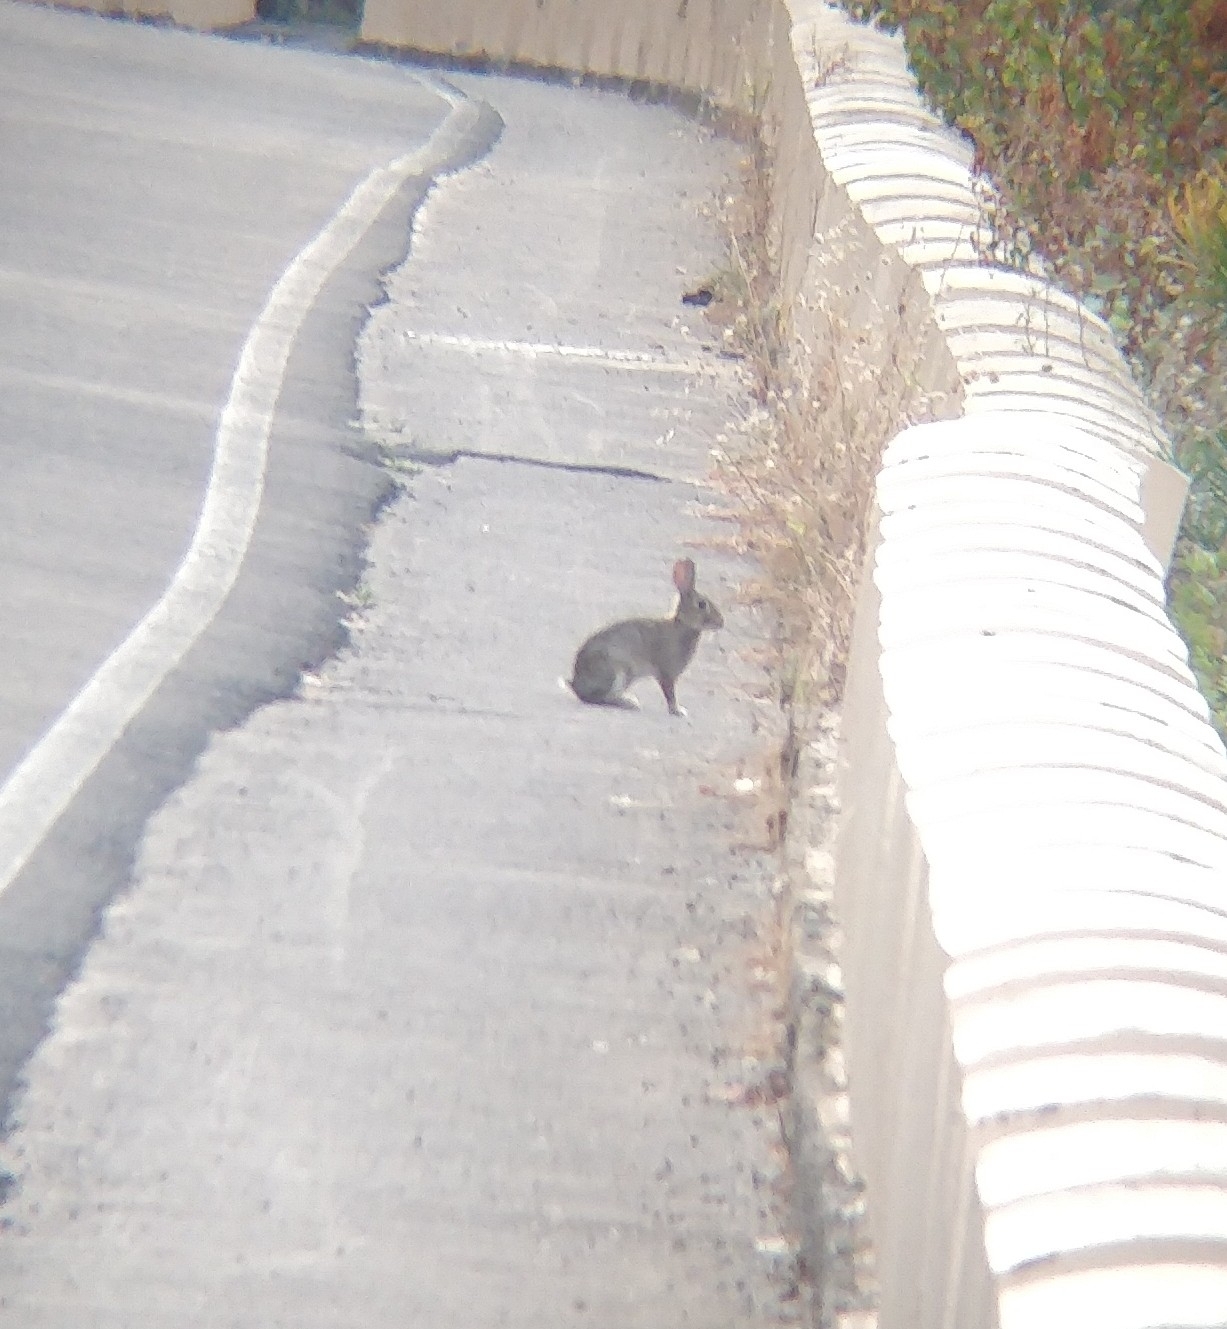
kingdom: Animalia
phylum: Chordata
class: Mammalia
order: Lagomorpha
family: Leporidae
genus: Oryctolagus
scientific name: Oryctolagus cuniculus
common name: European rabbit
